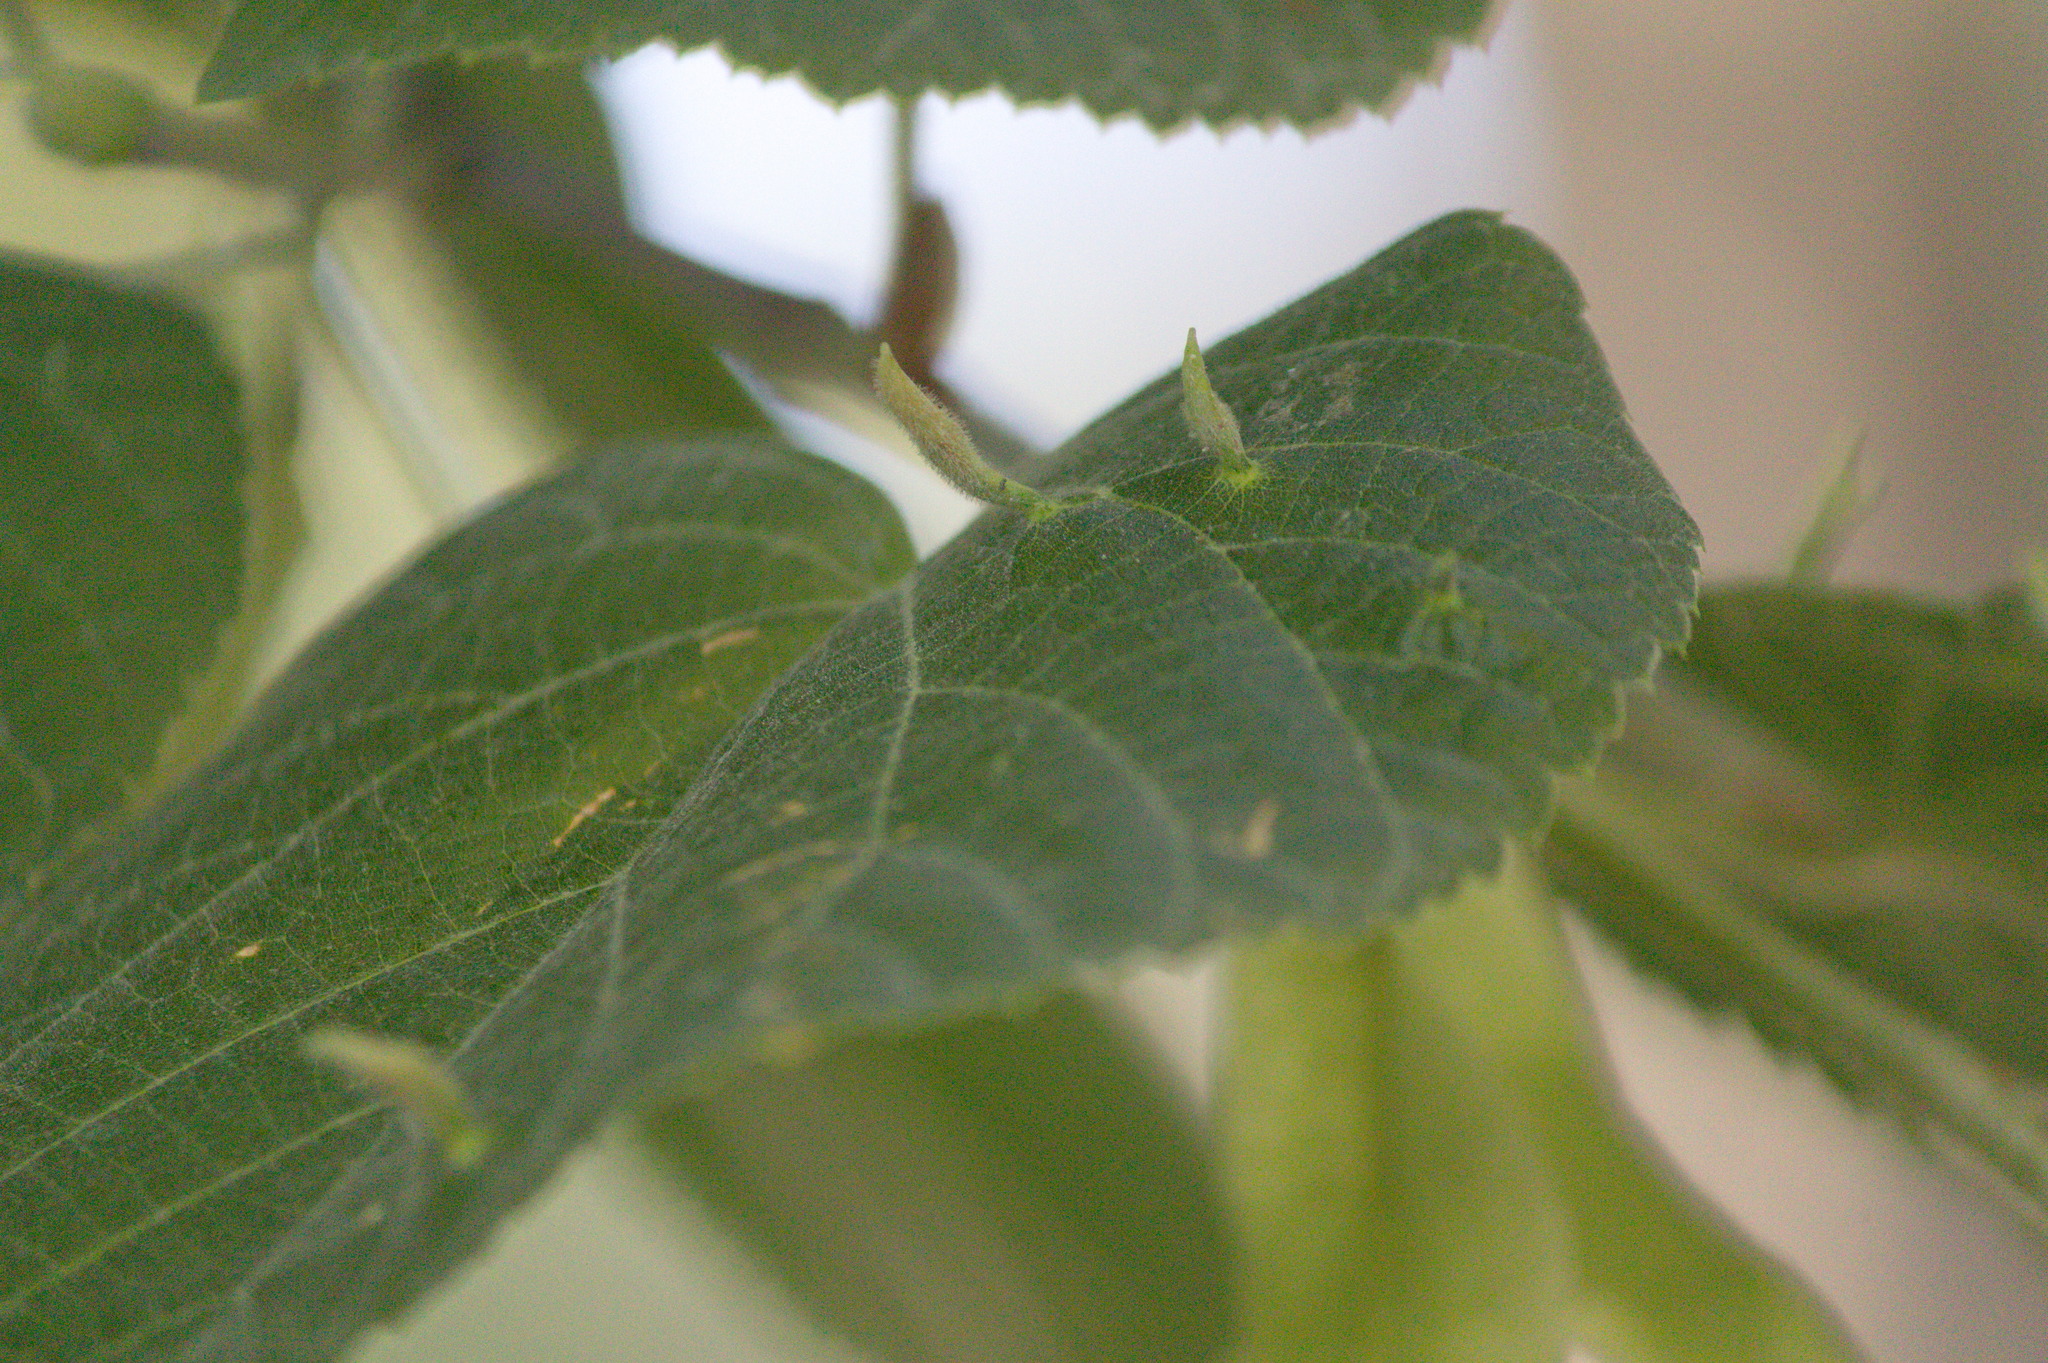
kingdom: Animalia
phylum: Arthropoda
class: Arachnida
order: Trombidiformes
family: Eriophyidae
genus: Eriophyes
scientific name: Eriophyes tiliae
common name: Red nail gall mite
